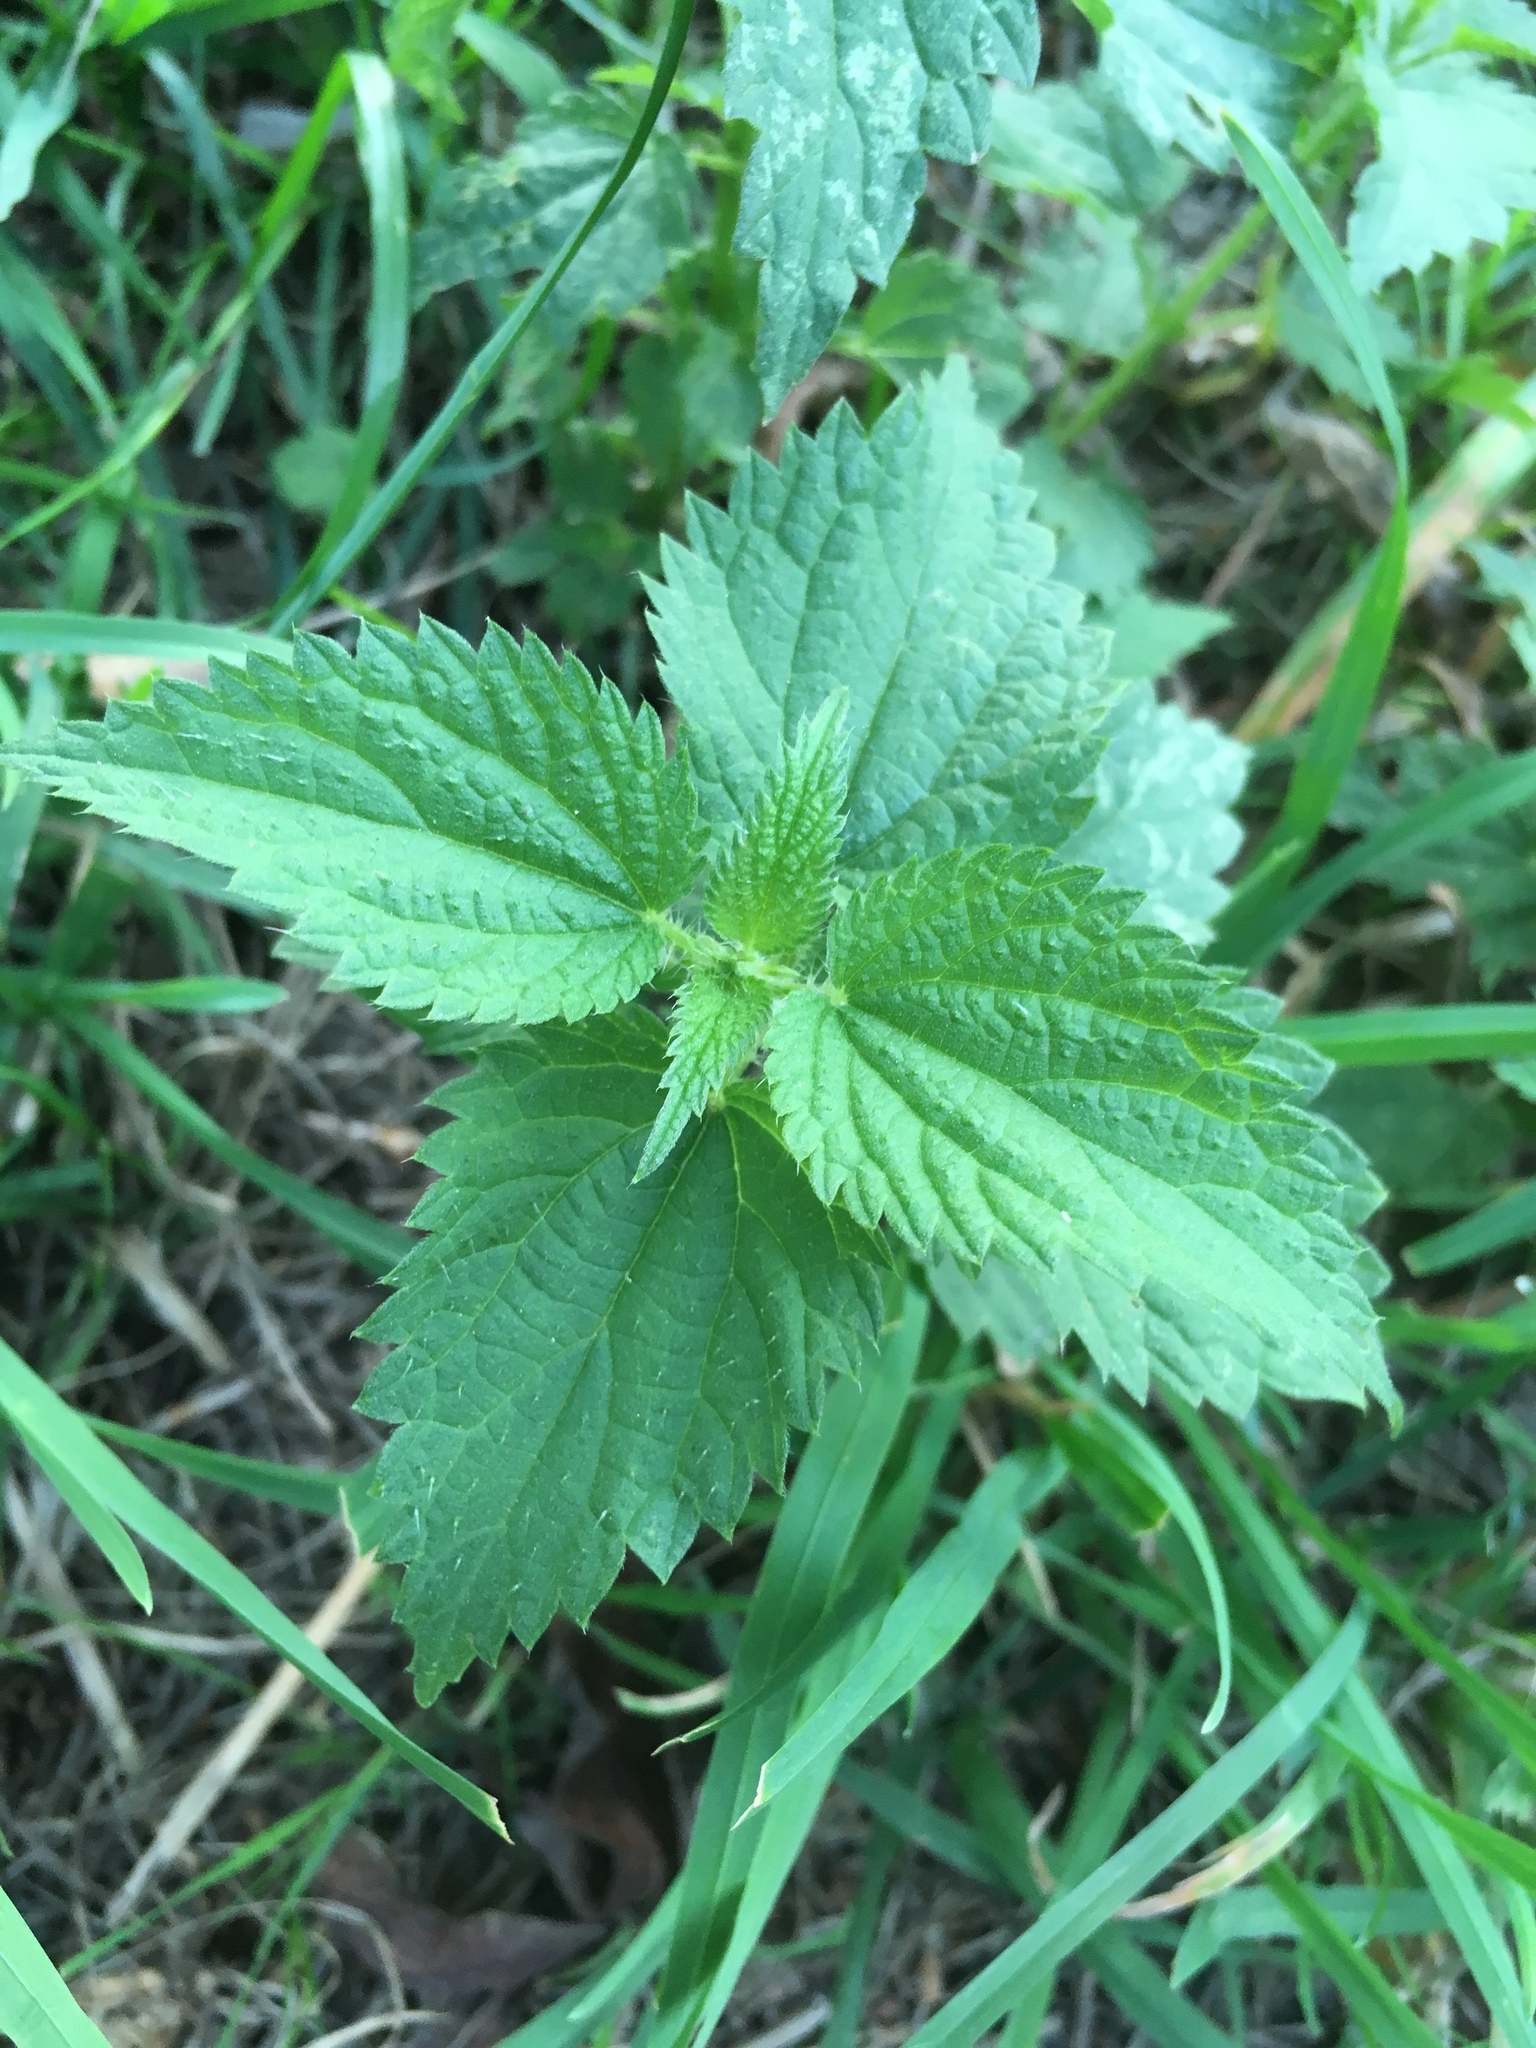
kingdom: Plantae
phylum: Tracheophyta
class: Magnoliopsida
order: Rosales
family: Urticaceae
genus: Urtica
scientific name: Urtica dioica
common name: Common nettle
